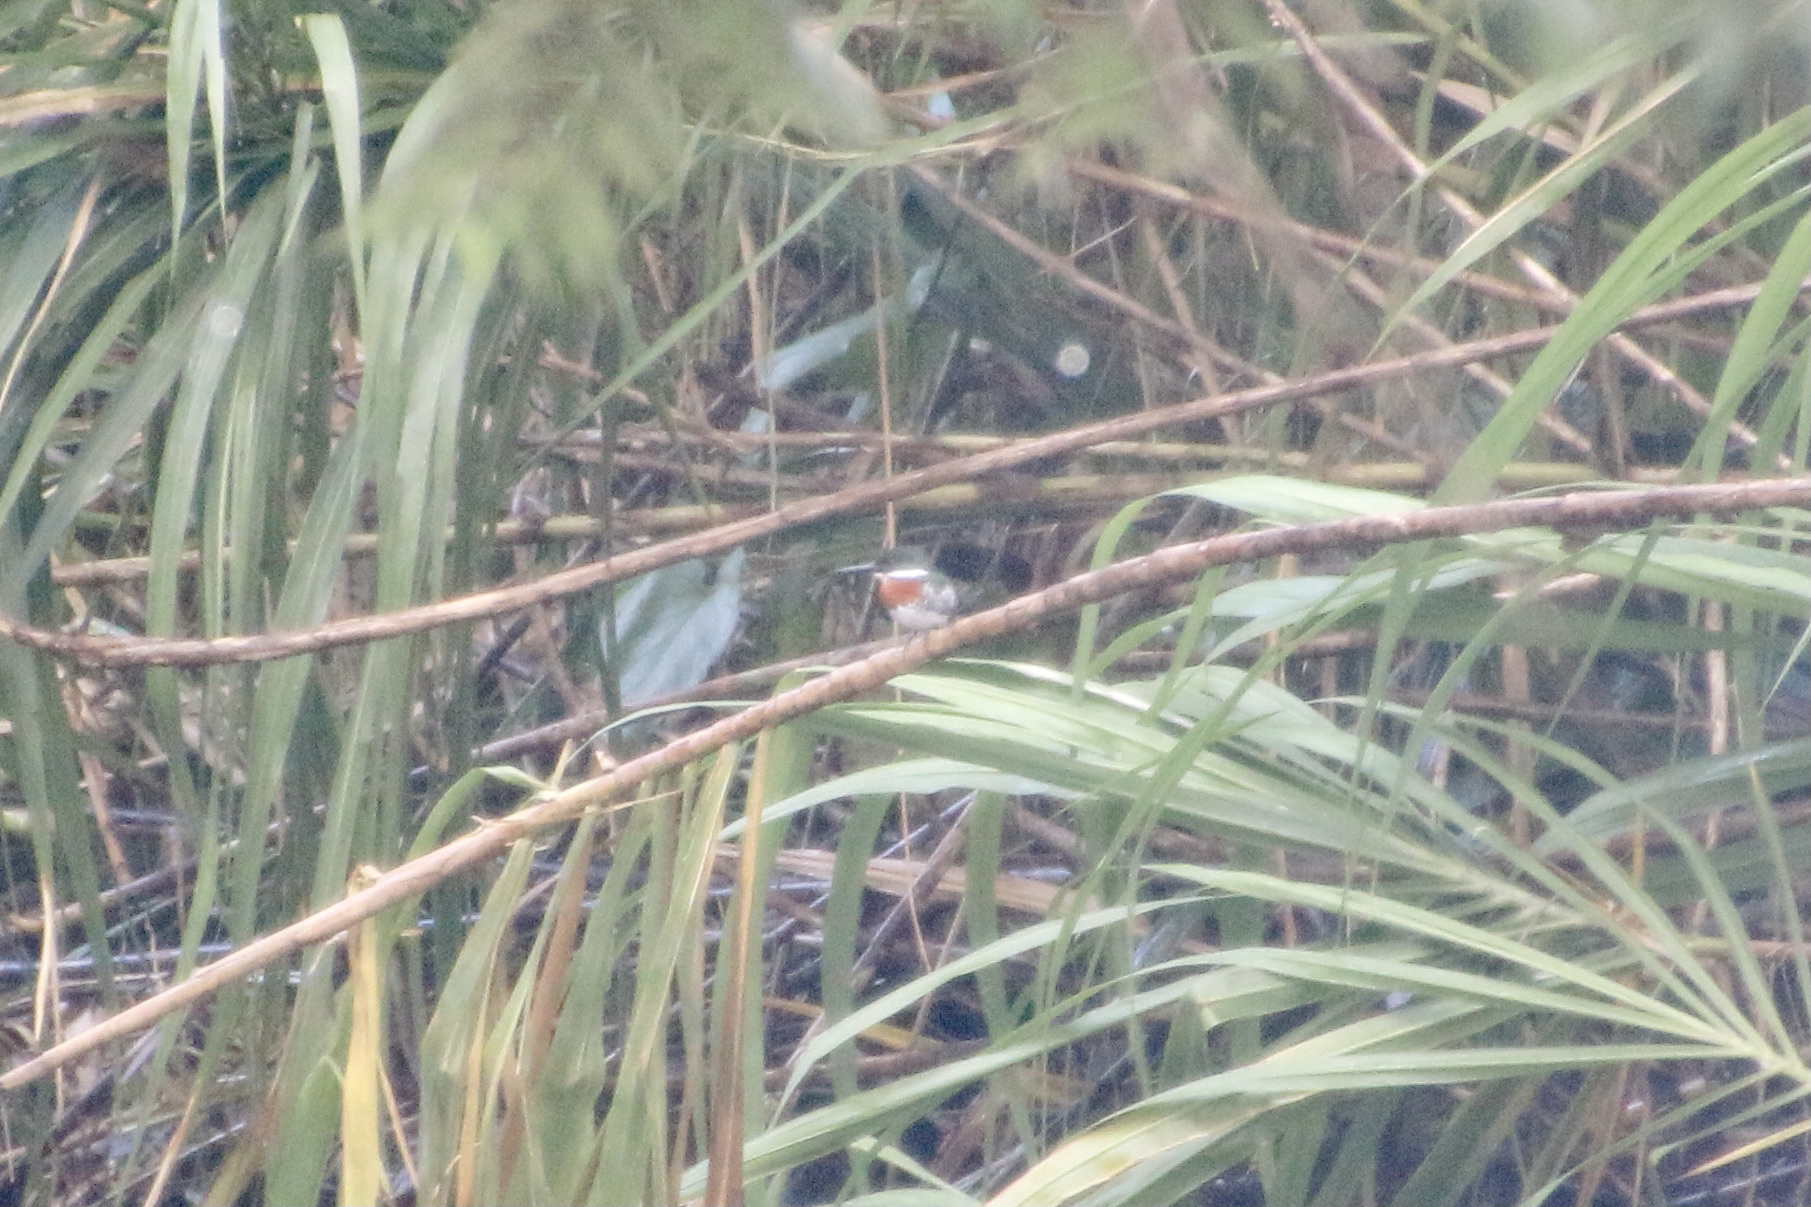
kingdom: Animalia
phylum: Chordata
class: Aves
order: Coraciiformes
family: Alcedinidae
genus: Chloroceryle
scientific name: Chloroceryle americana
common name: Green kingfisher
